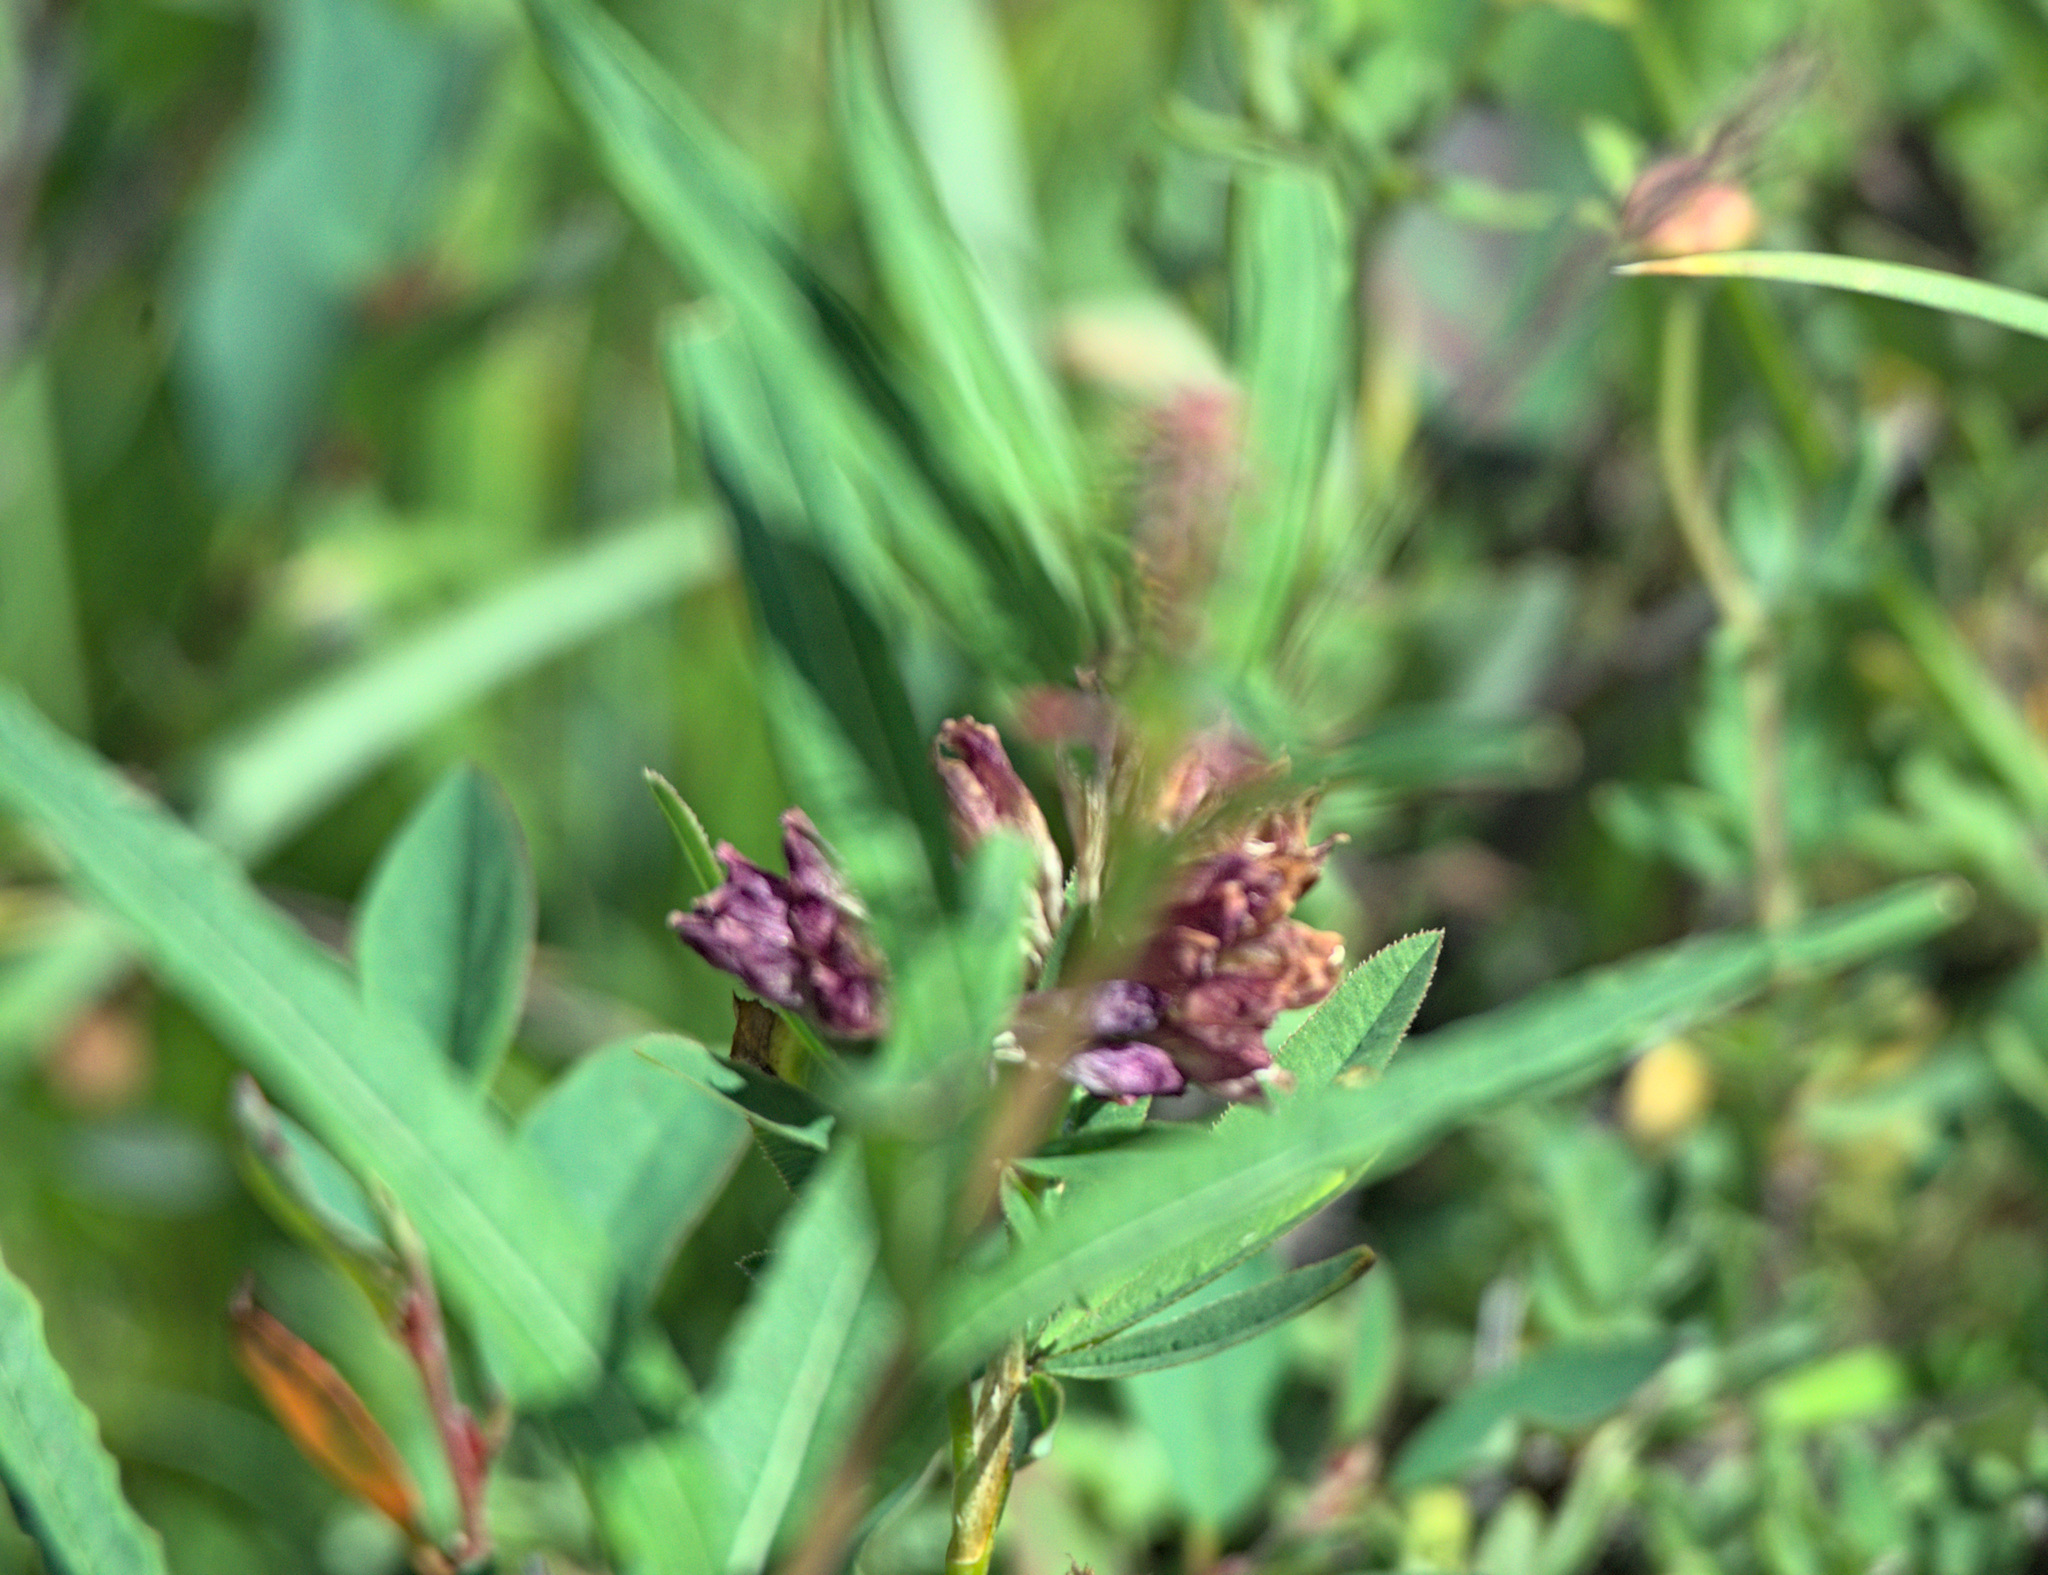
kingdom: Plantae
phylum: Tracheophyta
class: Magnoliopsida
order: Myrtales
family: Onagraceae
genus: Chamaenerion
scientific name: Chamaenerion angustifolium
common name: Fireweed
